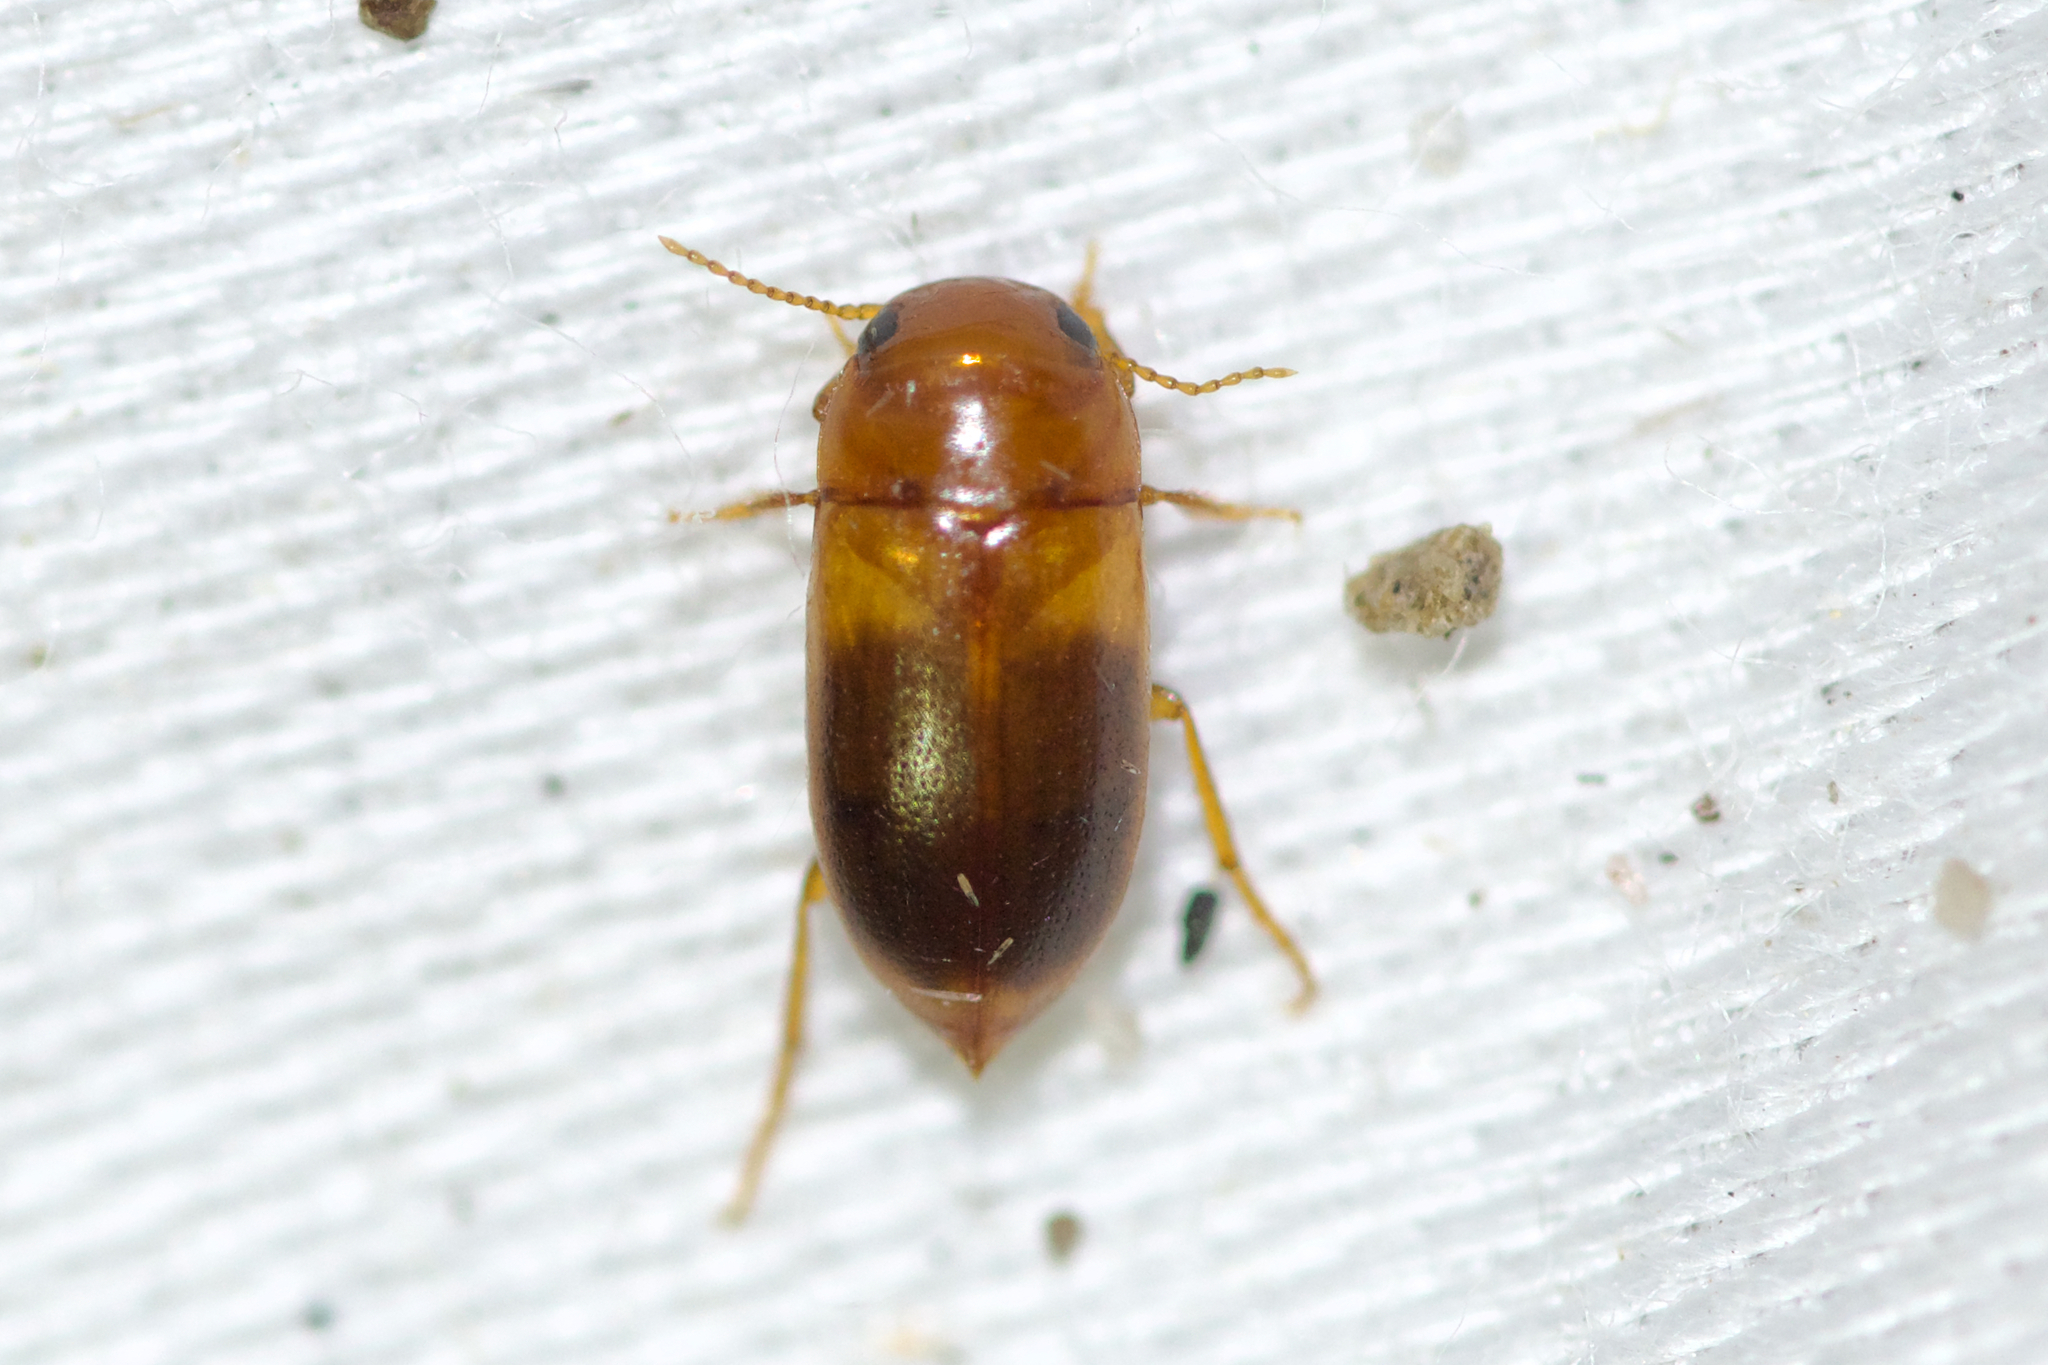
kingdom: Animalia
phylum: Arthropoda
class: Insecta
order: Coleoptera
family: Dytiscidae
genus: Celina
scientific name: Celina hubbelli
